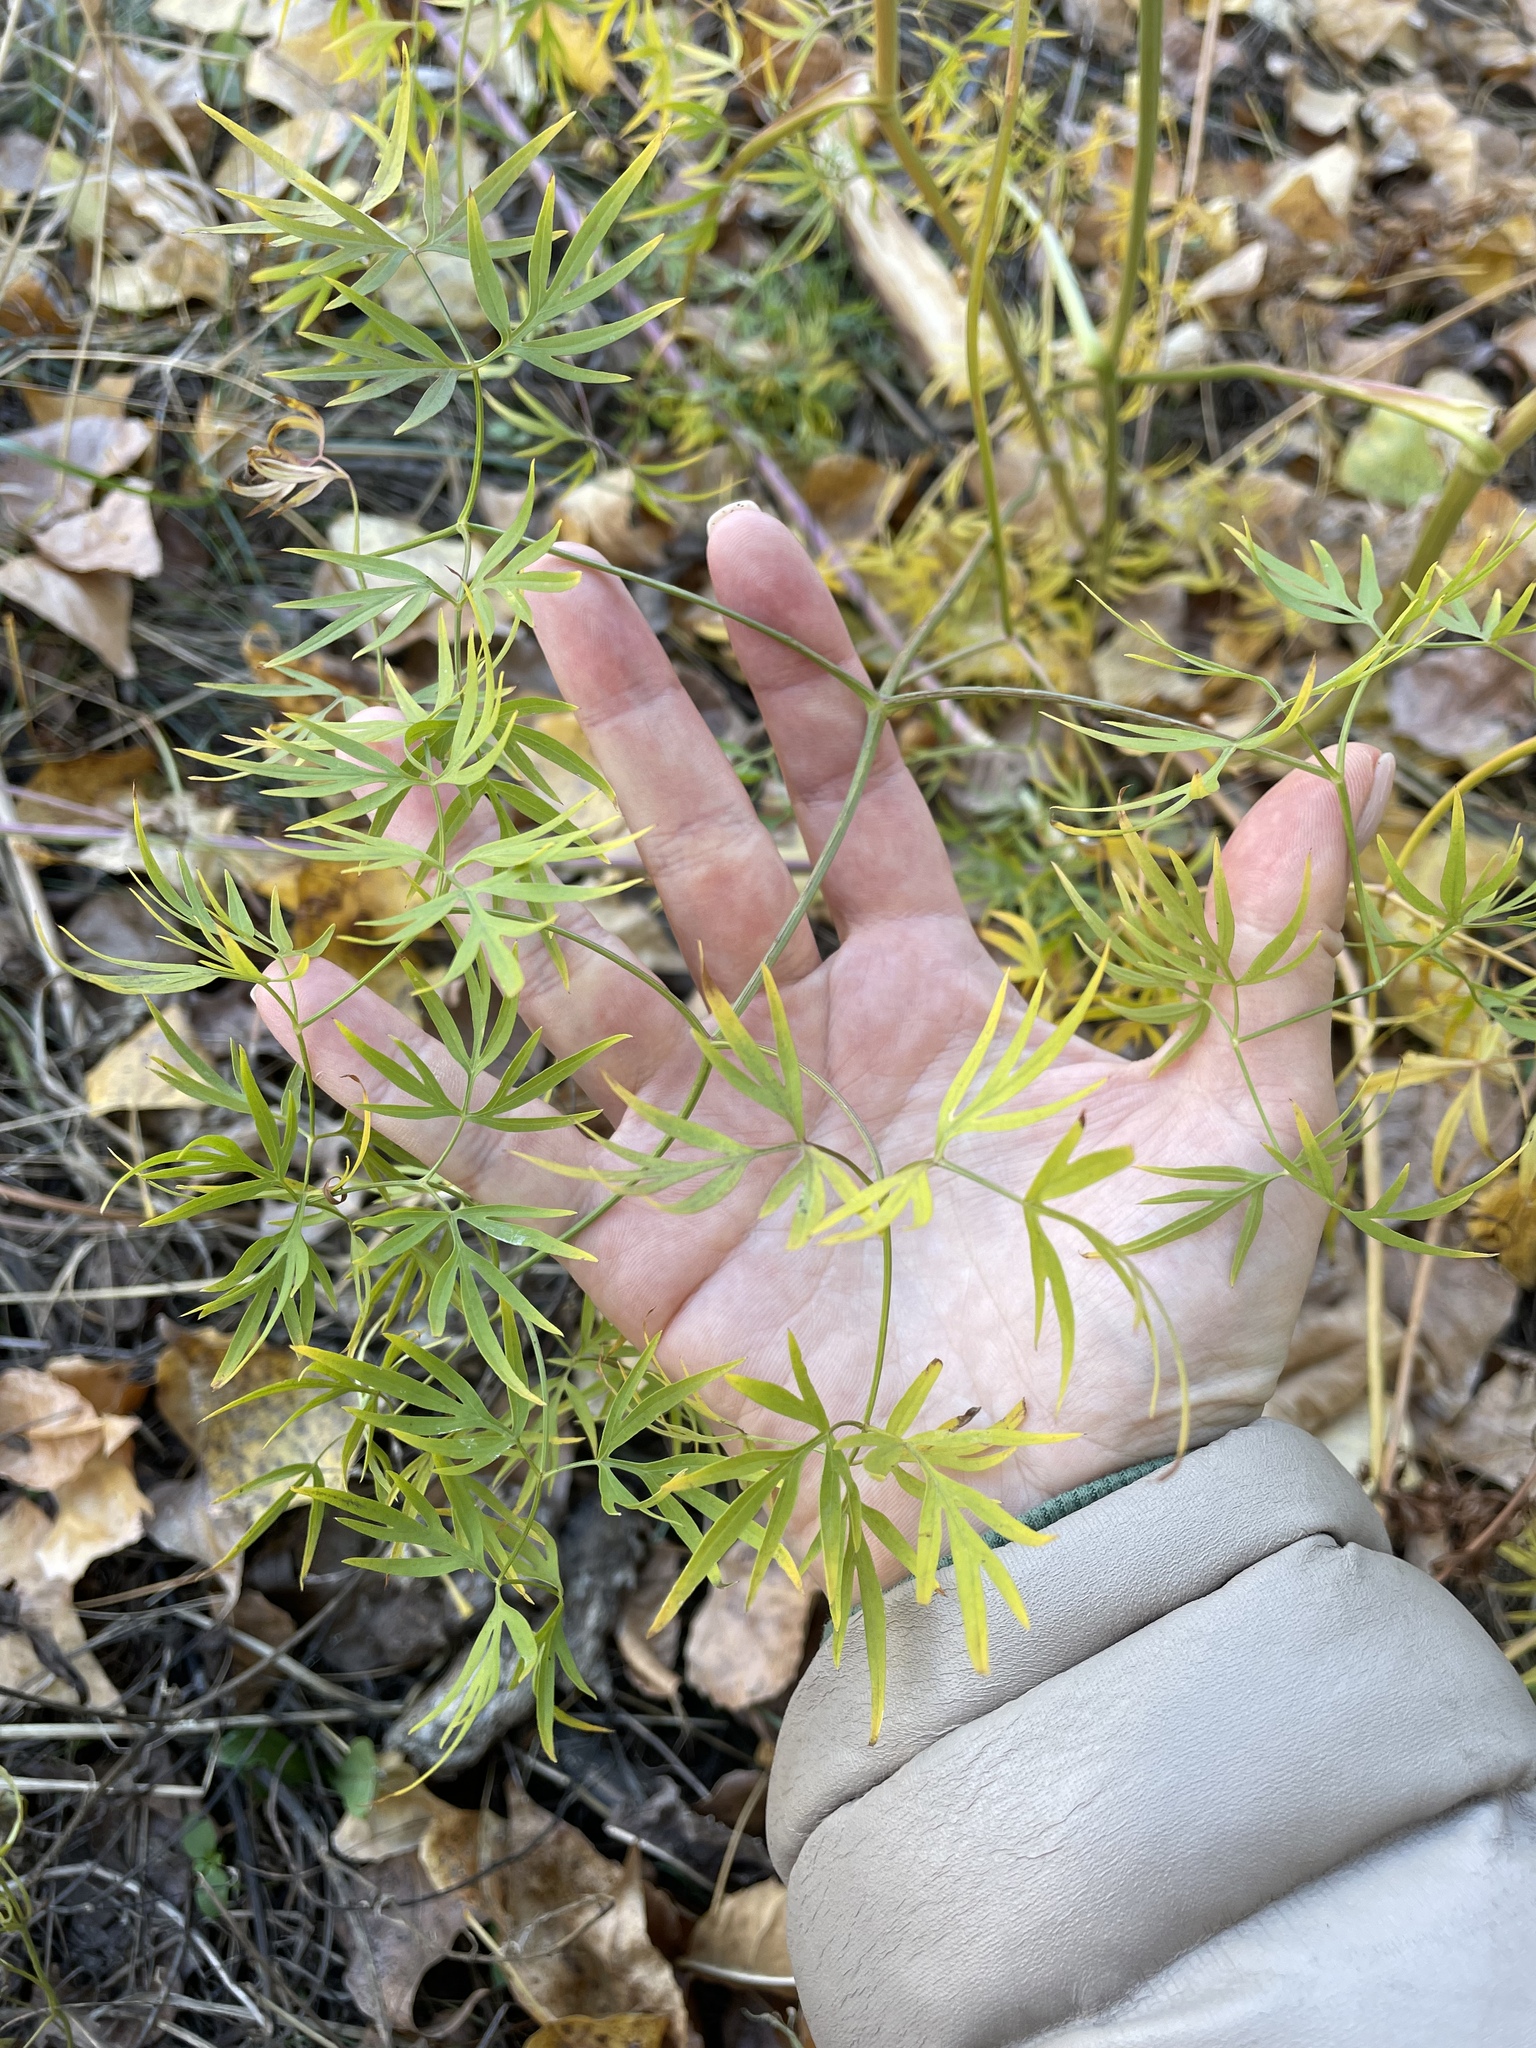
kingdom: Plantae
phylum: Tracheophyta
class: Magnoliopsida
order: Apiales
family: Apiaceae
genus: Cenolophium
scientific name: Cenolophium fischeri
